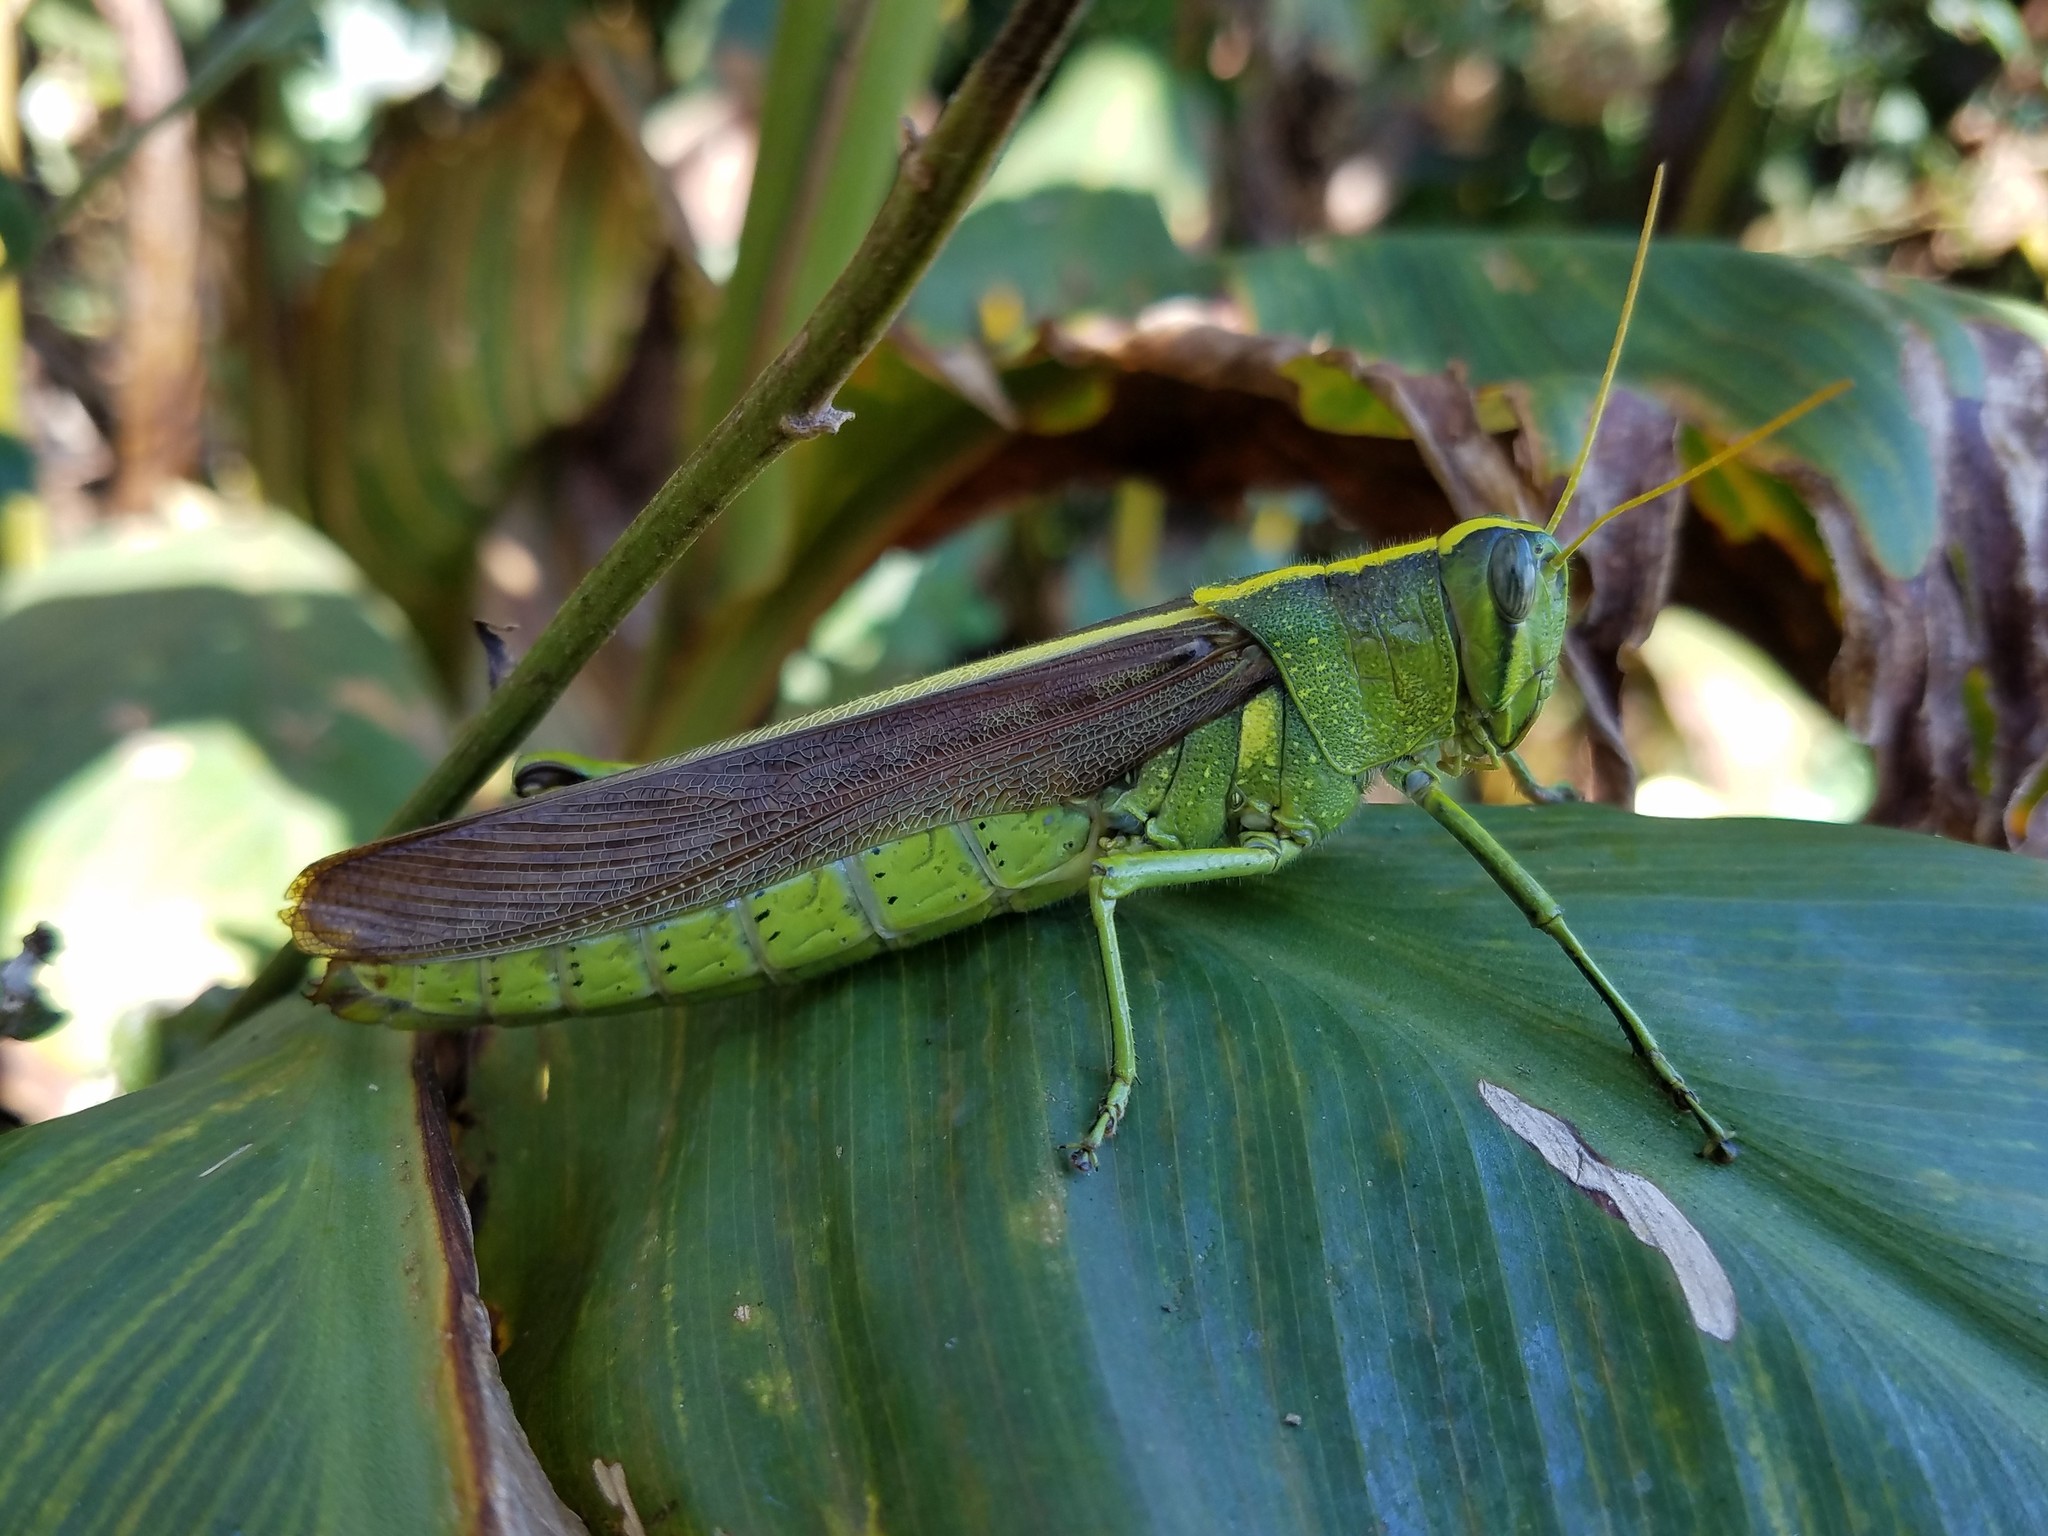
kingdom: Animalia
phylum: Arthropoda
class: Insecta
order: Orthoptera
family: Acrididae
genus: Schistocerca
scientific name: Schistocerca obscura
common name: Obscure bird grasshopper
